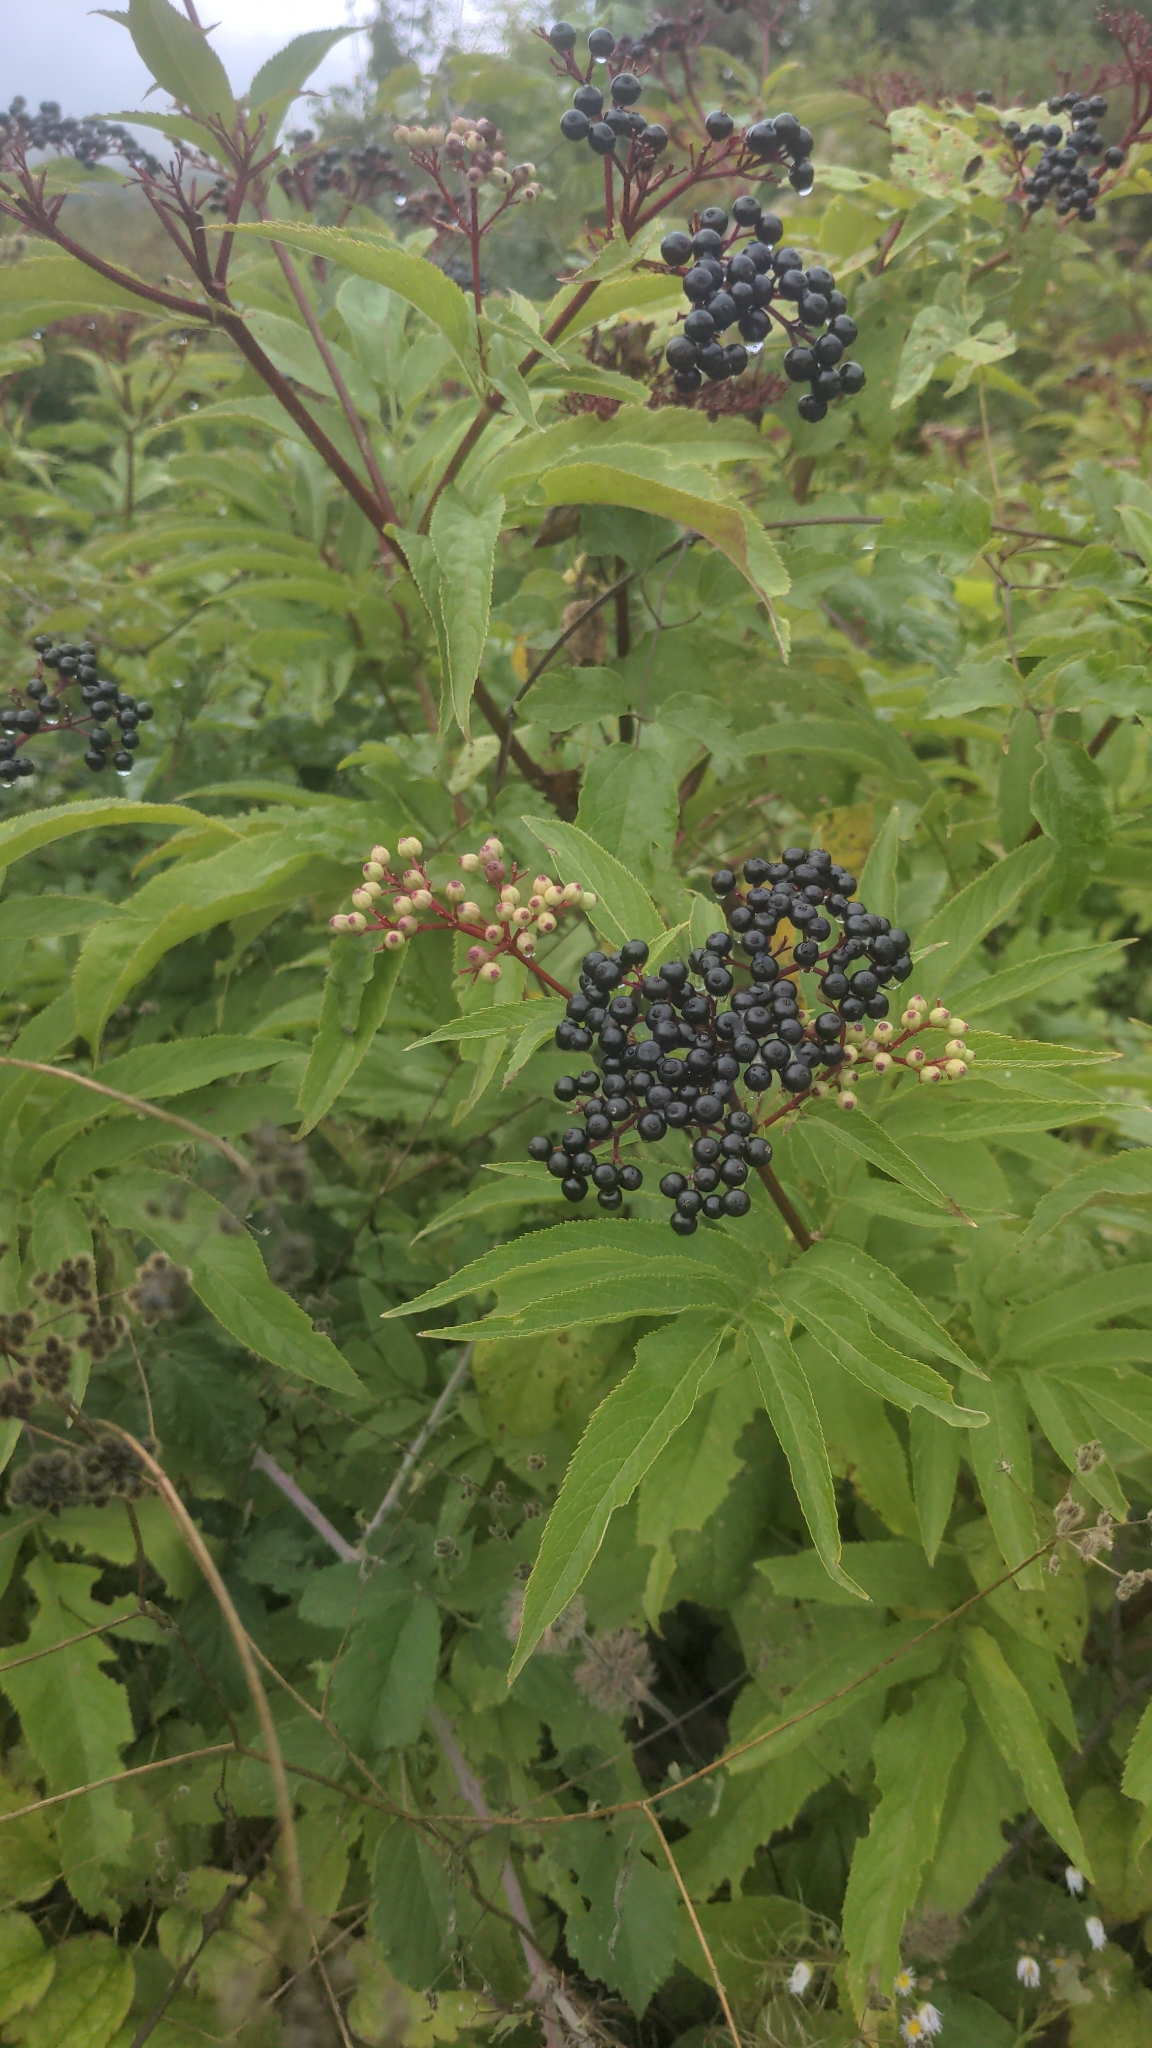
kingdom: Plantae
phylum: Tracheophyta
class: Magnoliopsida
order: Dipsacales
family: Viburnaceae
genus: Sambucus
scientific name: Sambucus ebulus
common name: Dwarf elder
